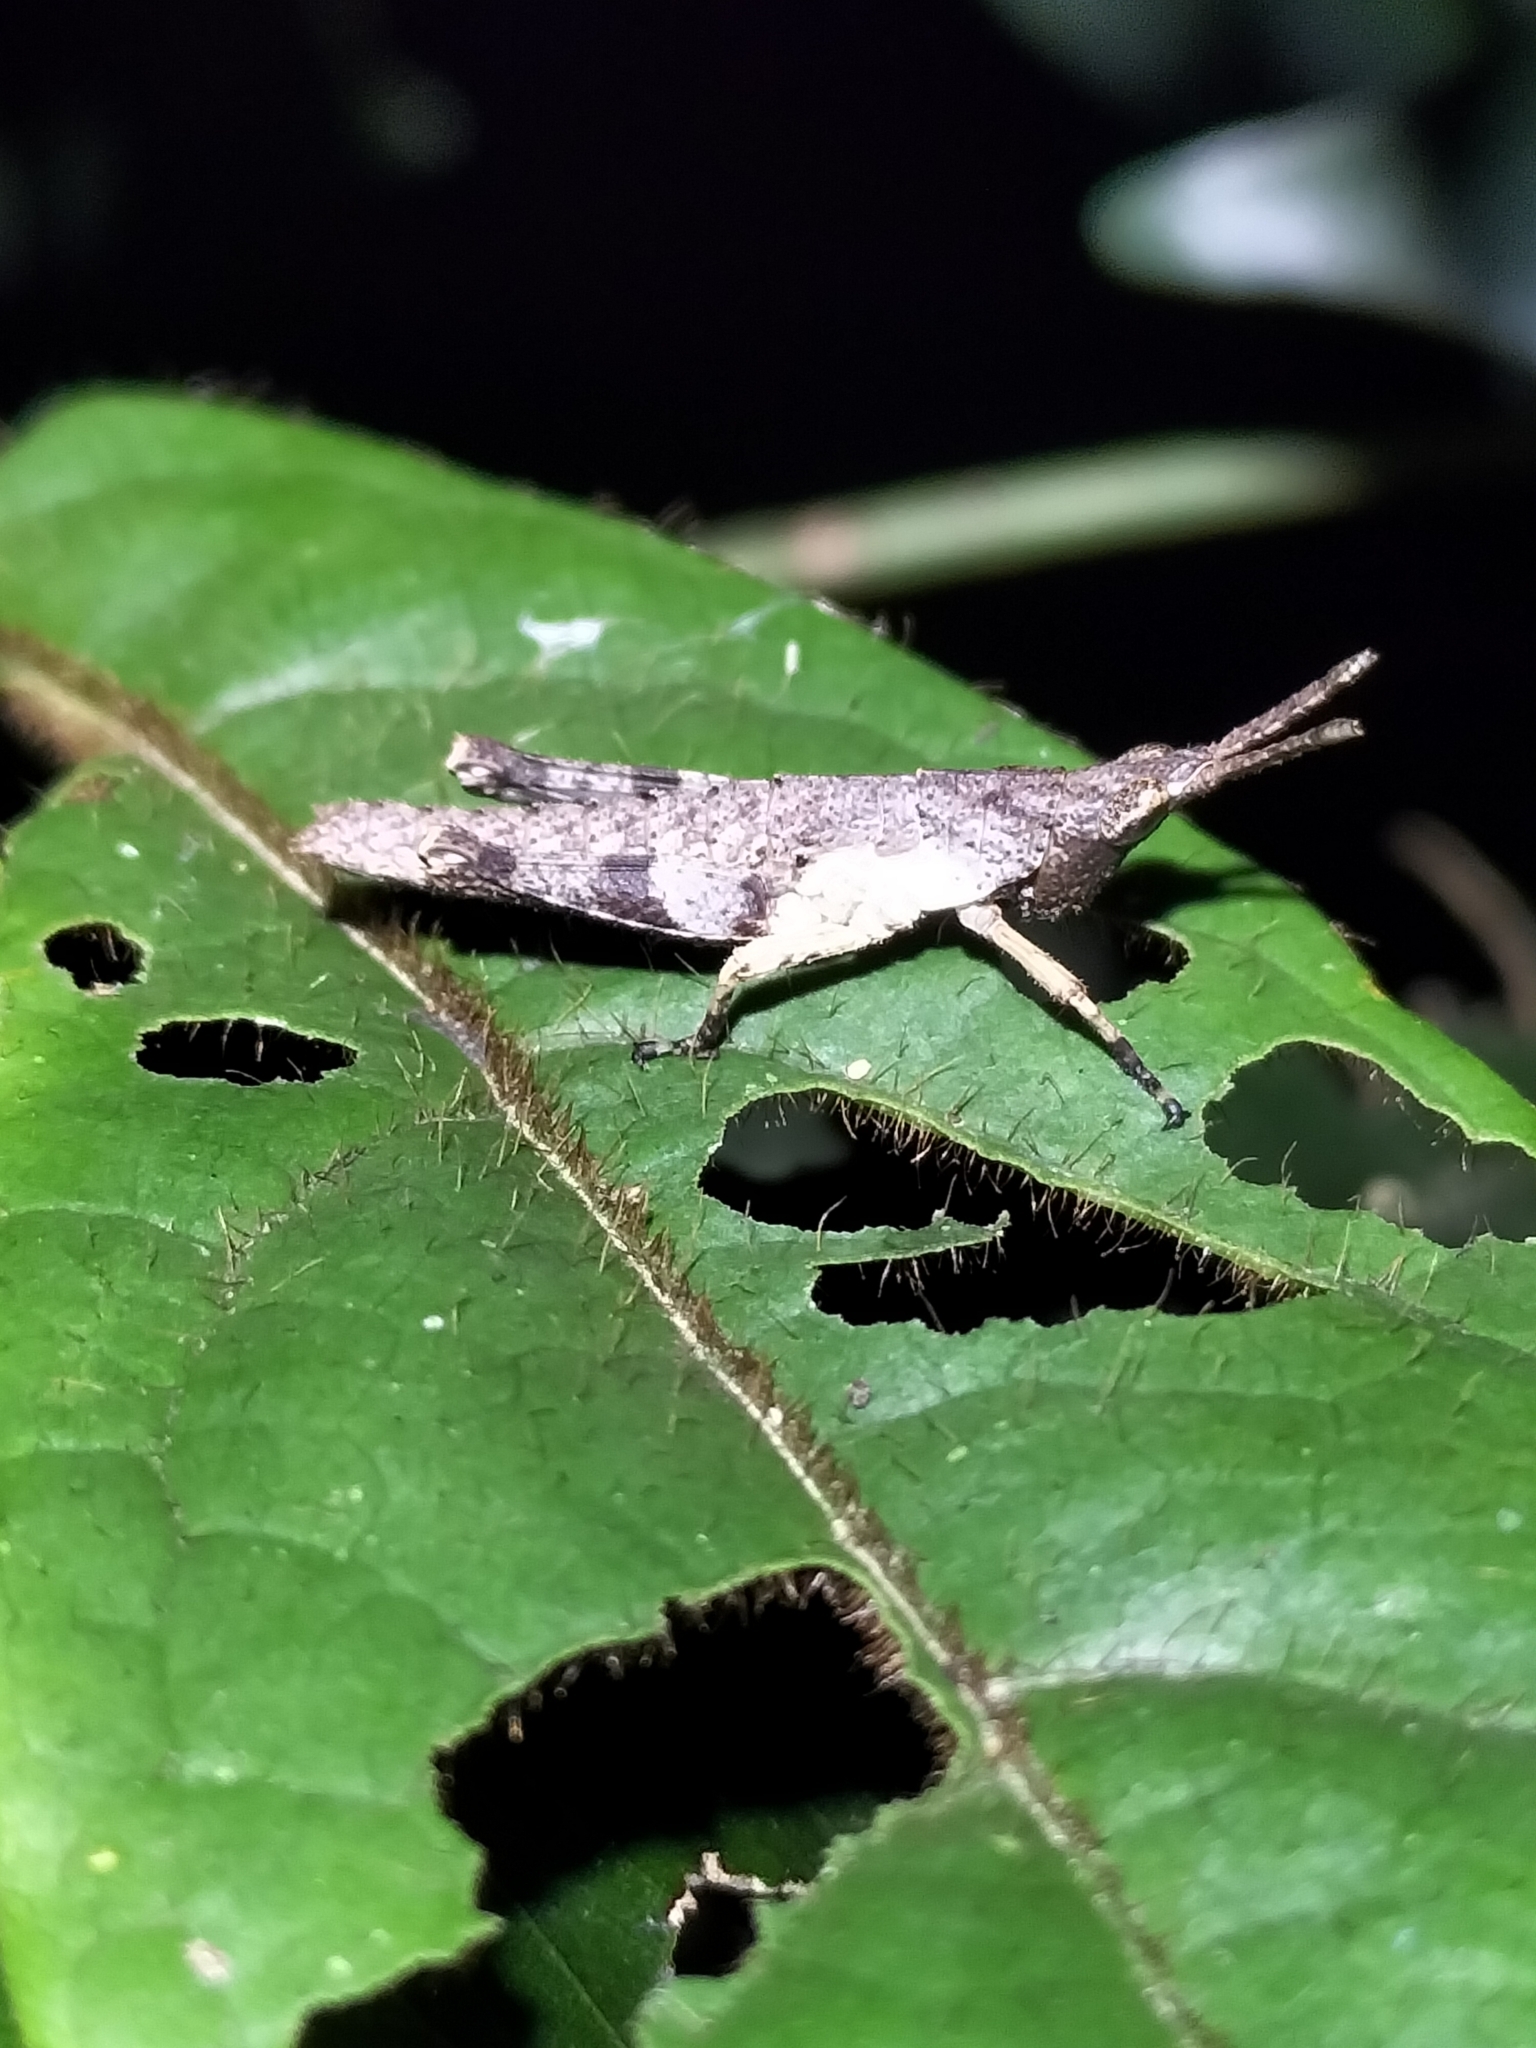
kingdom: Animalia
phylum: Arthropoda
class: Insecta
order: Orthoptera
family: Pyrgomorphidae
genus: Desmoptera
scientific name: Desmoptera truncatipennis
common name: Large forest pyrgomorph
